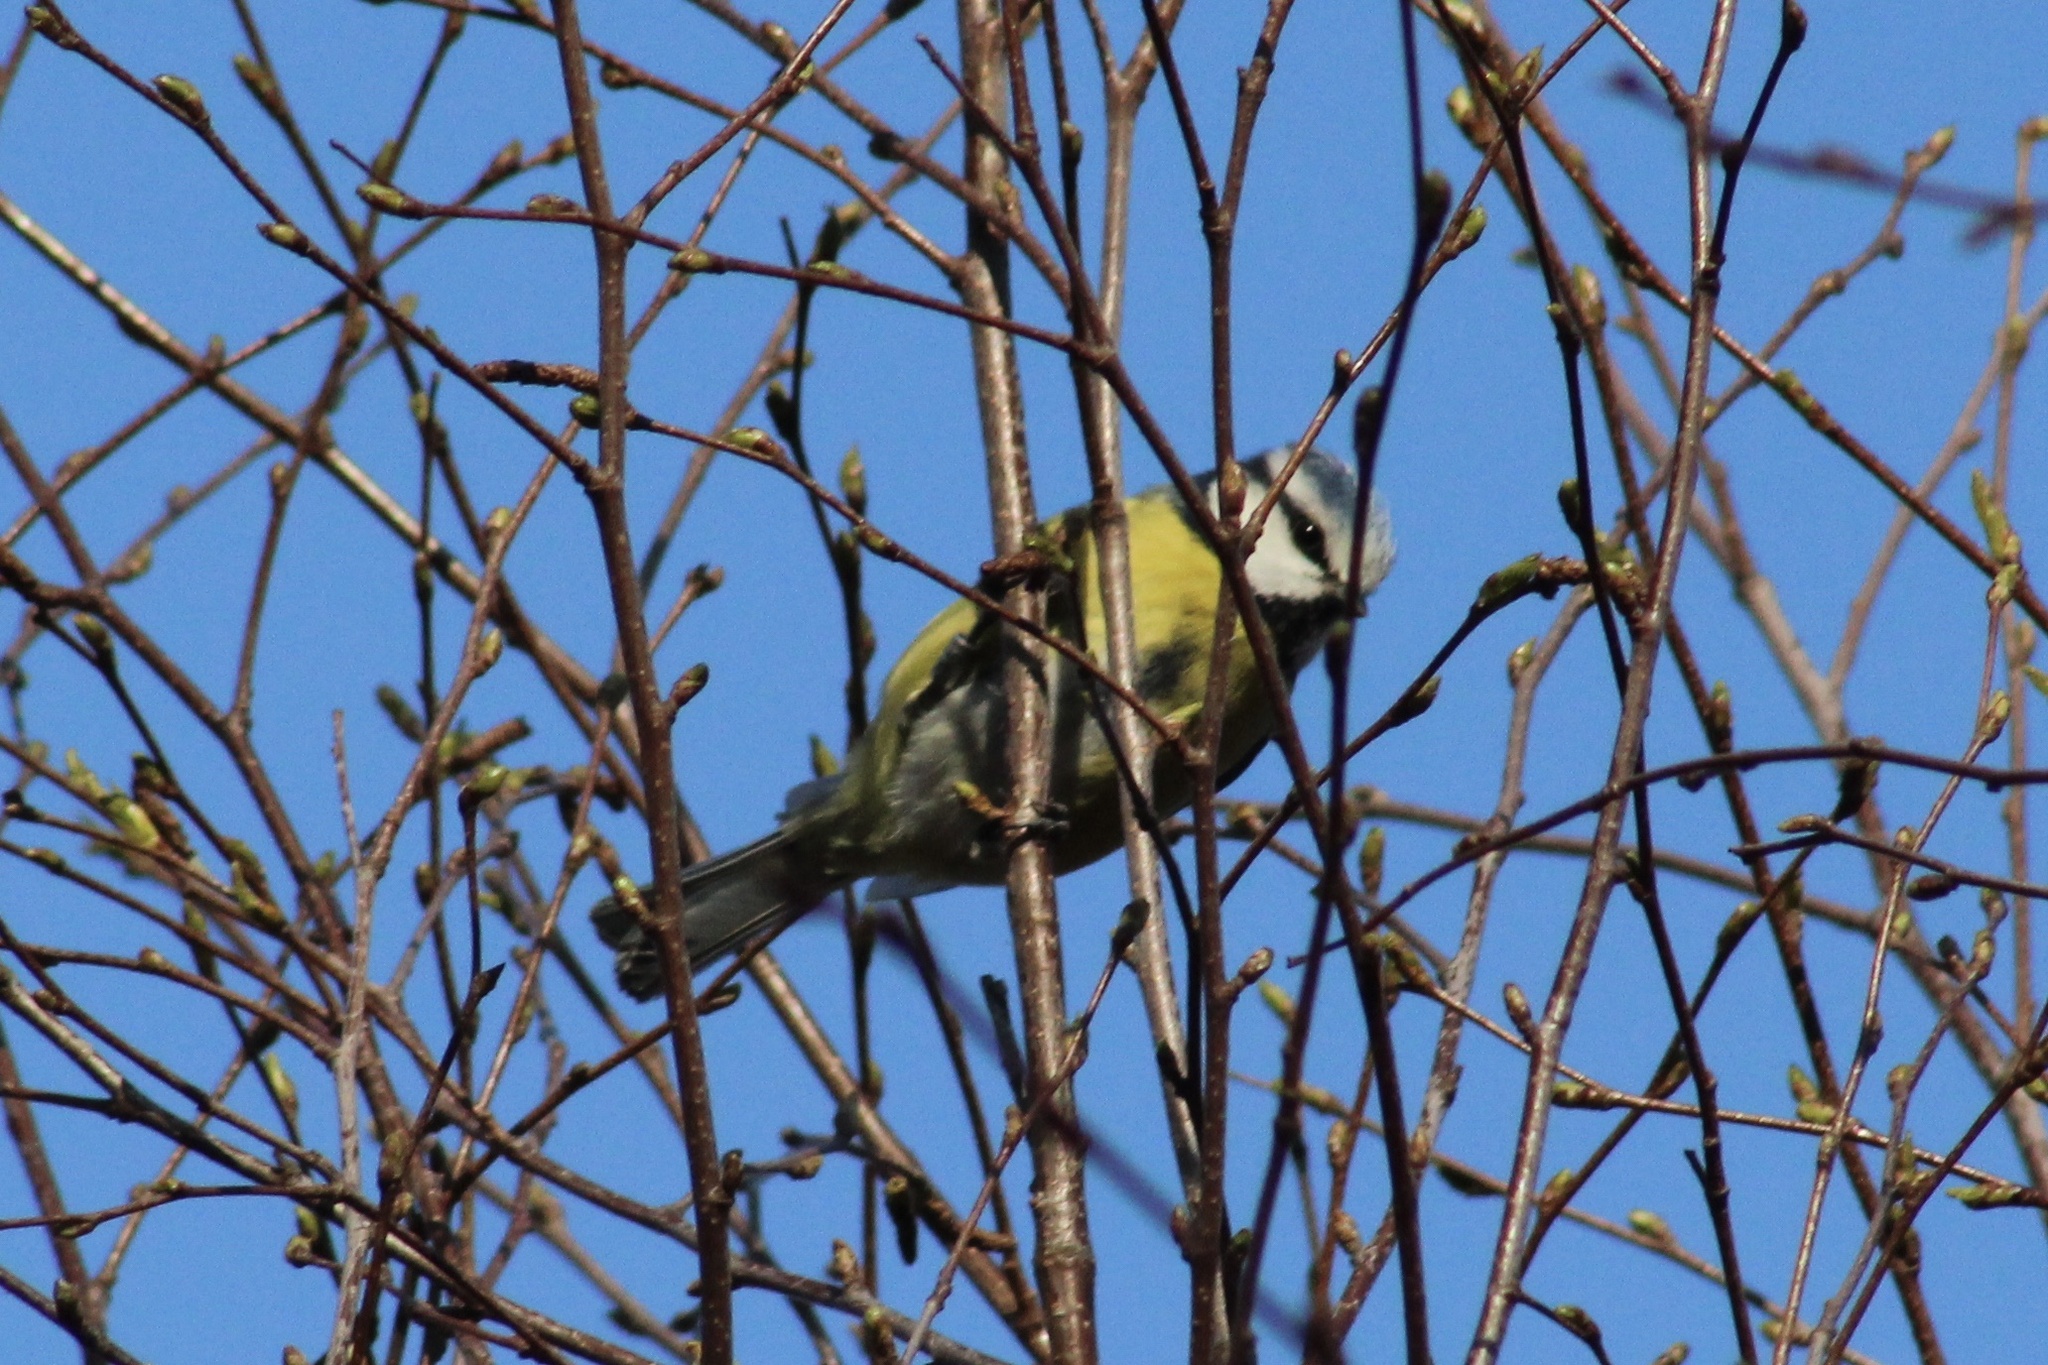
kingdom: Animalia
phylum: Chordata
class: Aves
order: Passeriformes
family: Paridae
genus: Cyanistes
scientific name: Cyanistes caeruleus
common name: Eurasian blue tit
